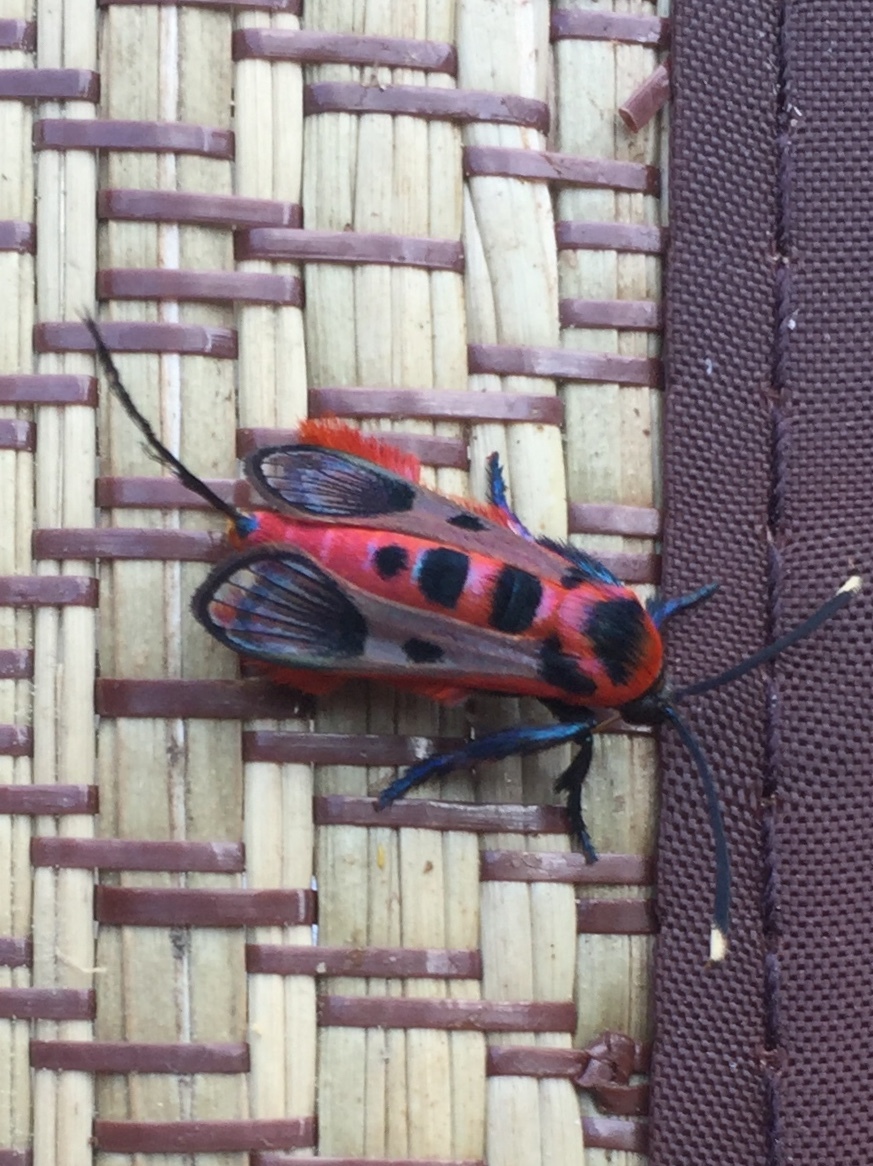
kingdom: Animalia
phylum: Arthropoda
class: Insecta
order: Lepidoptera
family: Sesiidae
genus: Akaisphecia
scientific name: Akaisphecia melanopuncta
